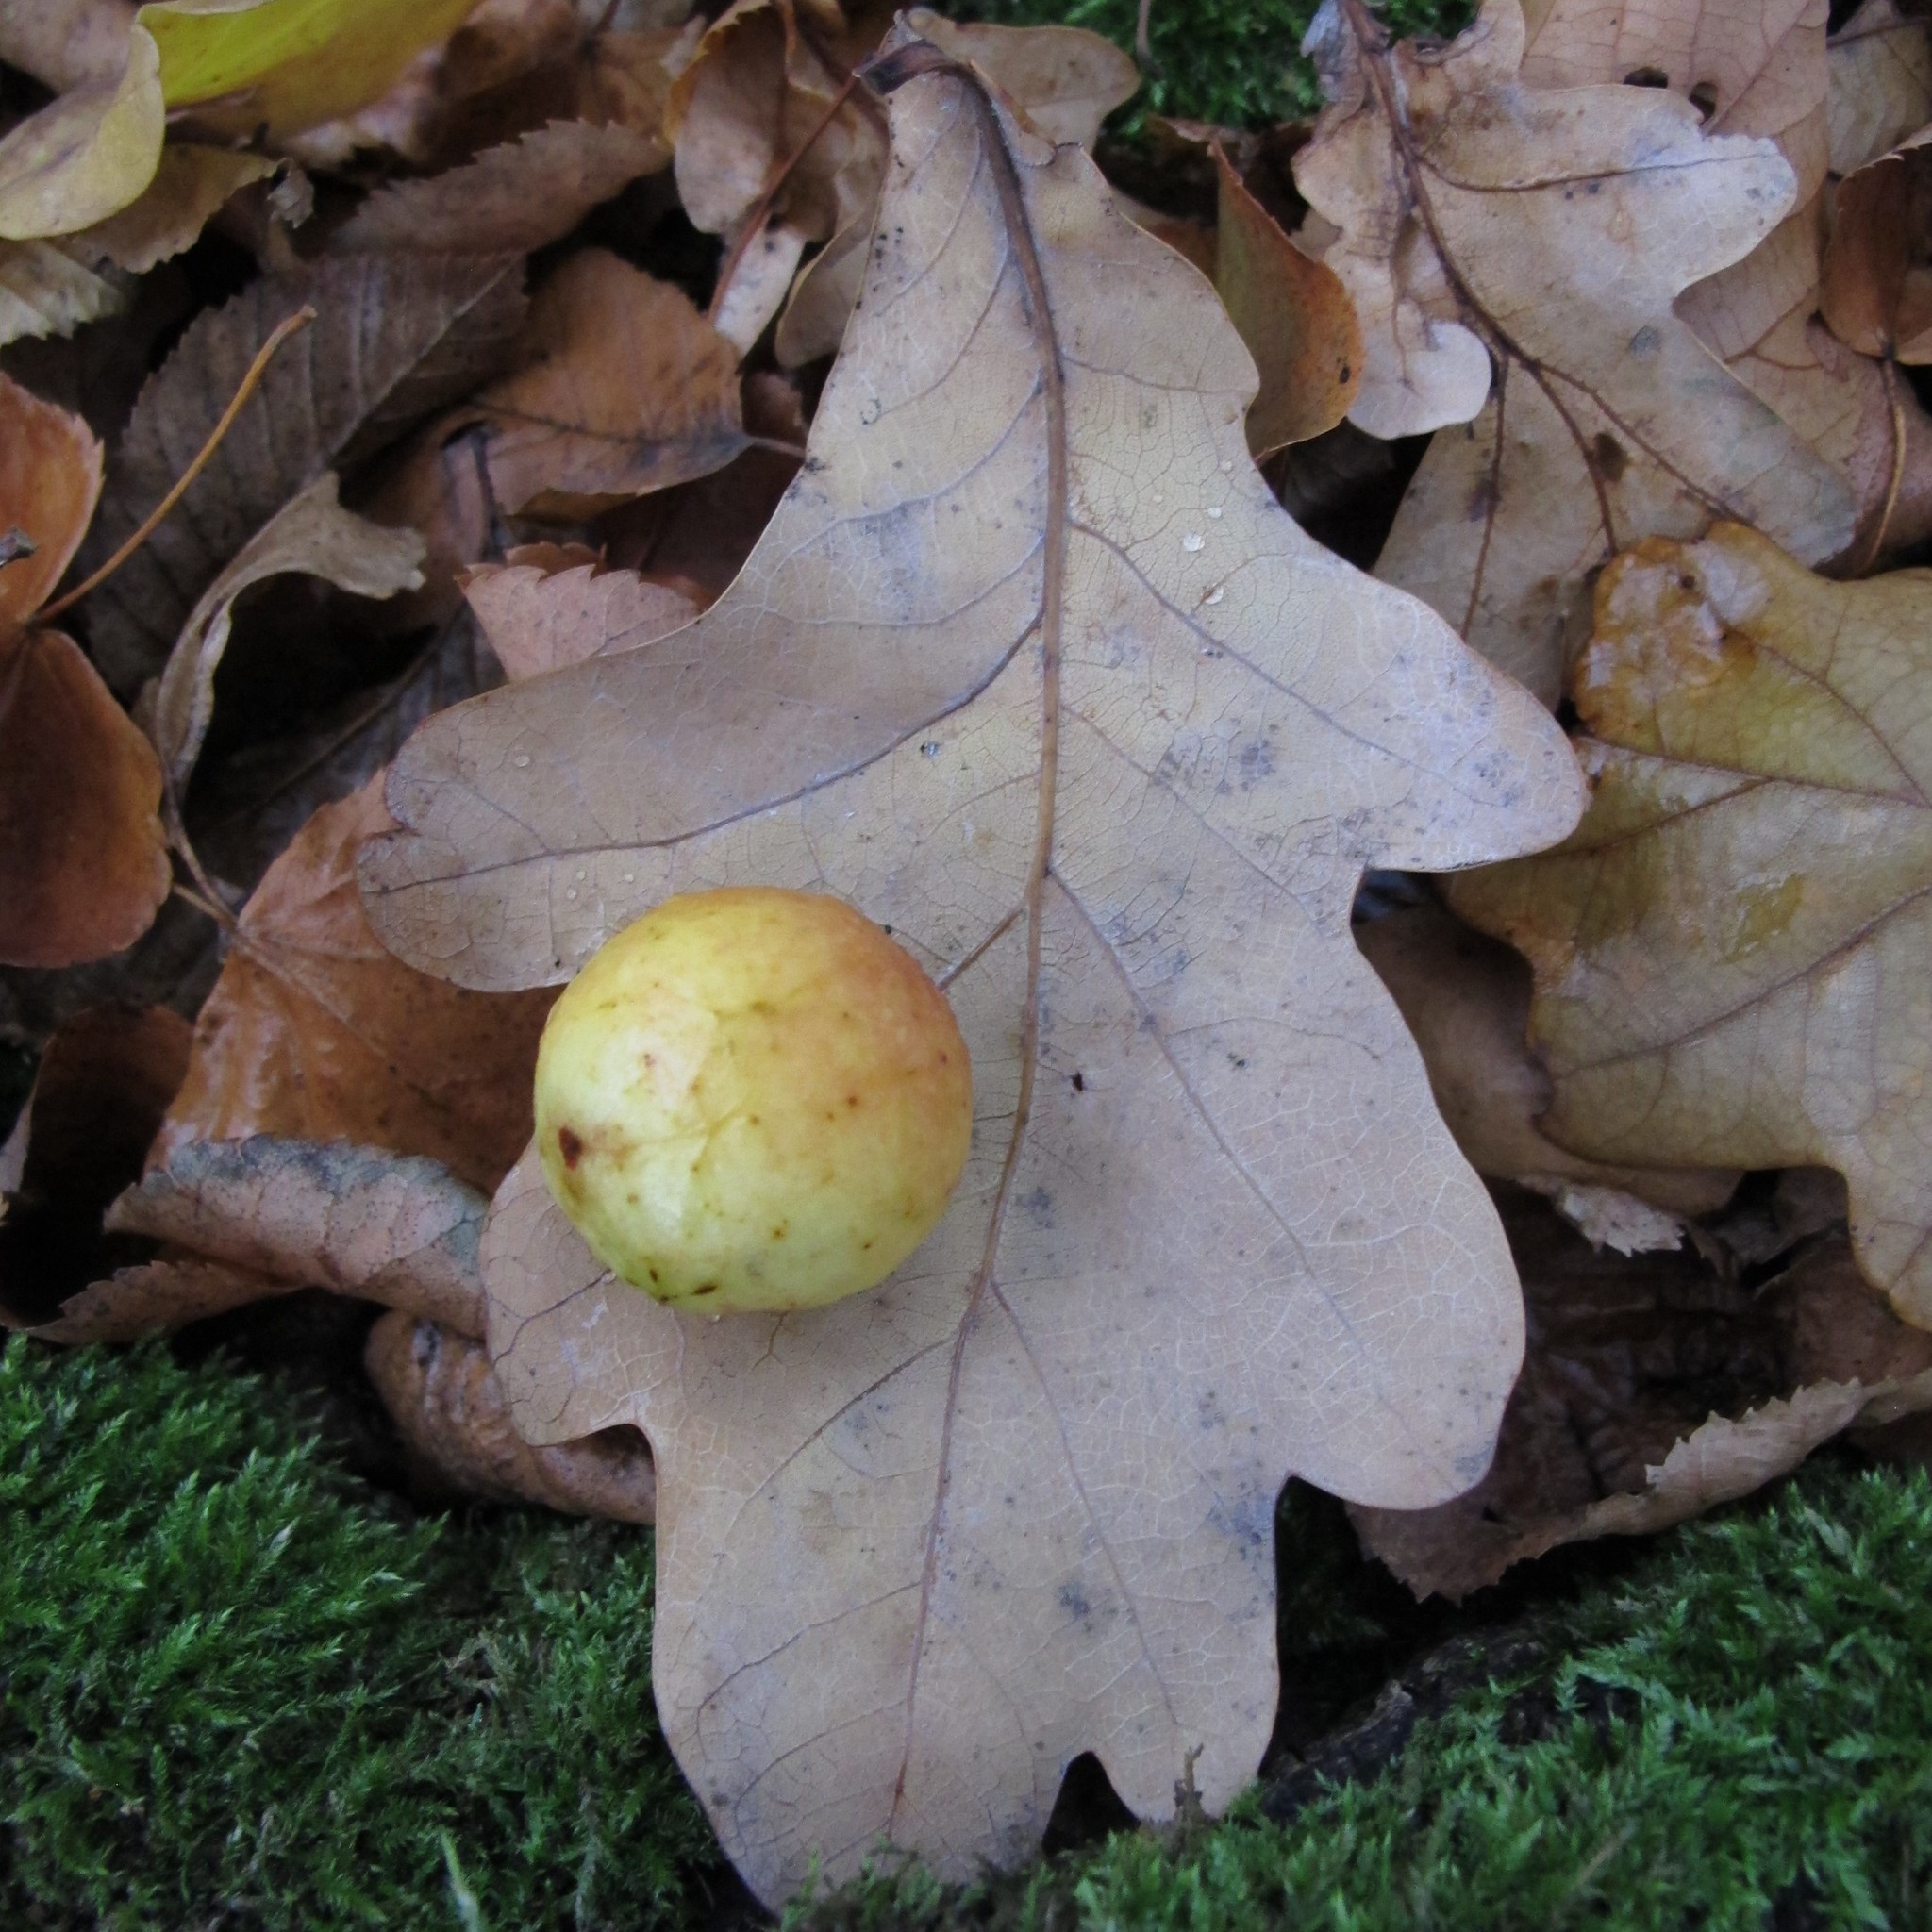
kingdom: Animalia
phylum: Arthropoda
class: Insecta
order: Hymenoptera
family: Cynipidae
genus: Cynips
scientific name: Cynips quercusfolii
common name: Cherry gall
